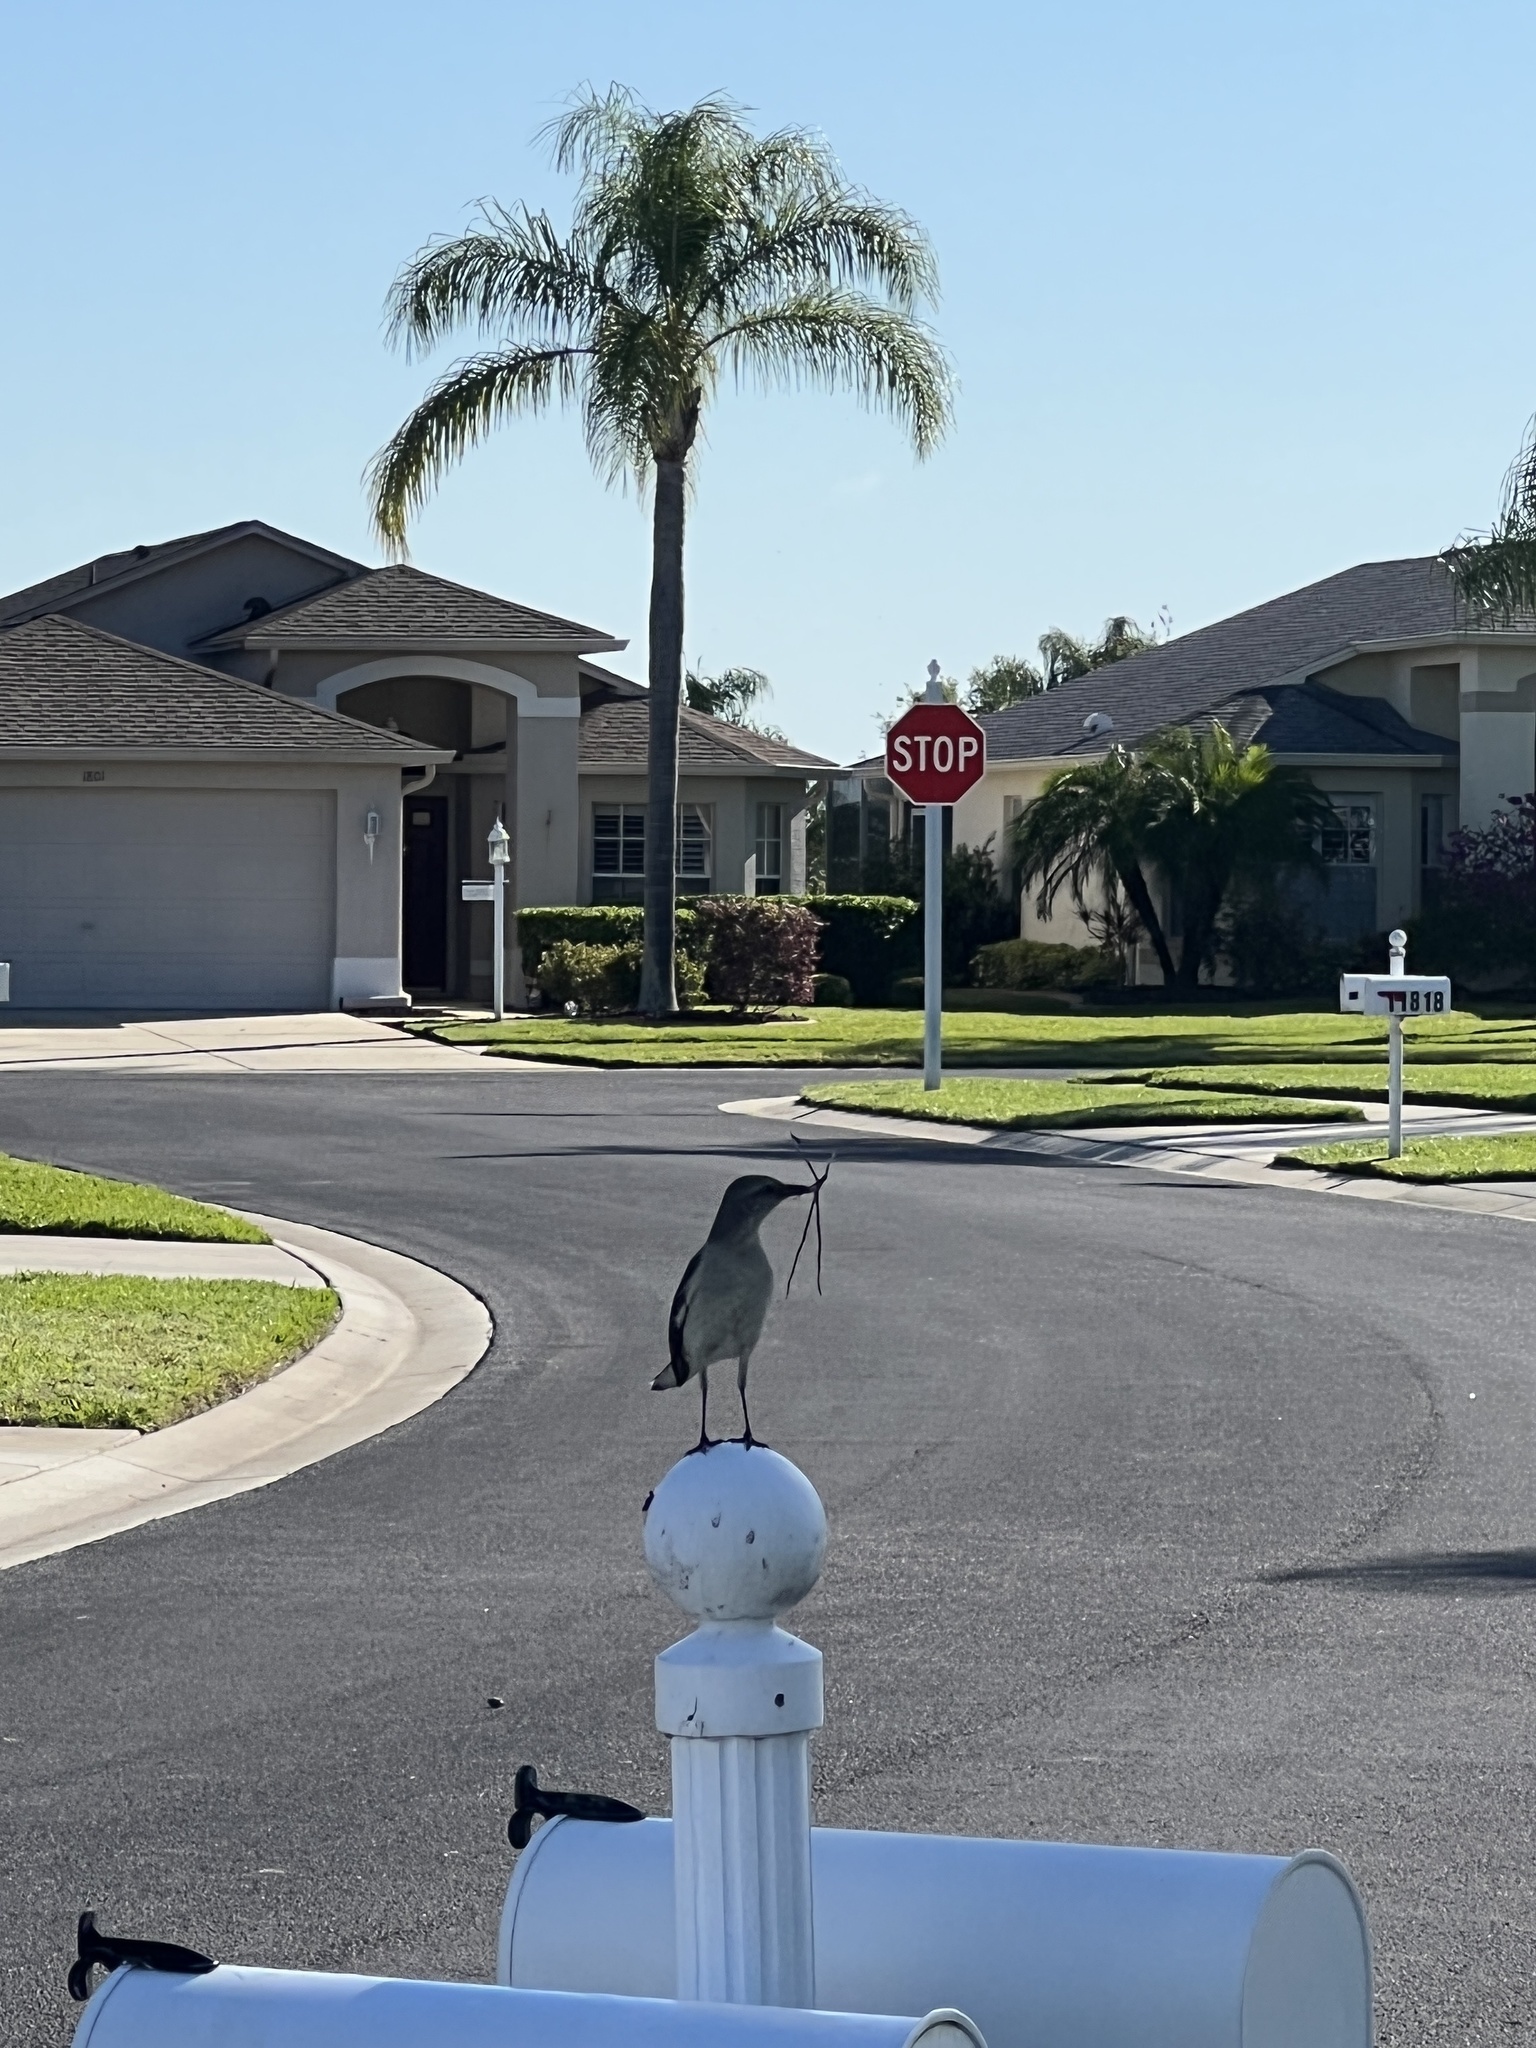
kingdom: Animalia
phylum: Chordata
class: Aves
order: Passeriformes
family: Mimidae
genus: Mimus
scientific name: Mimus polyglottos
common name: Northern mockingbird
